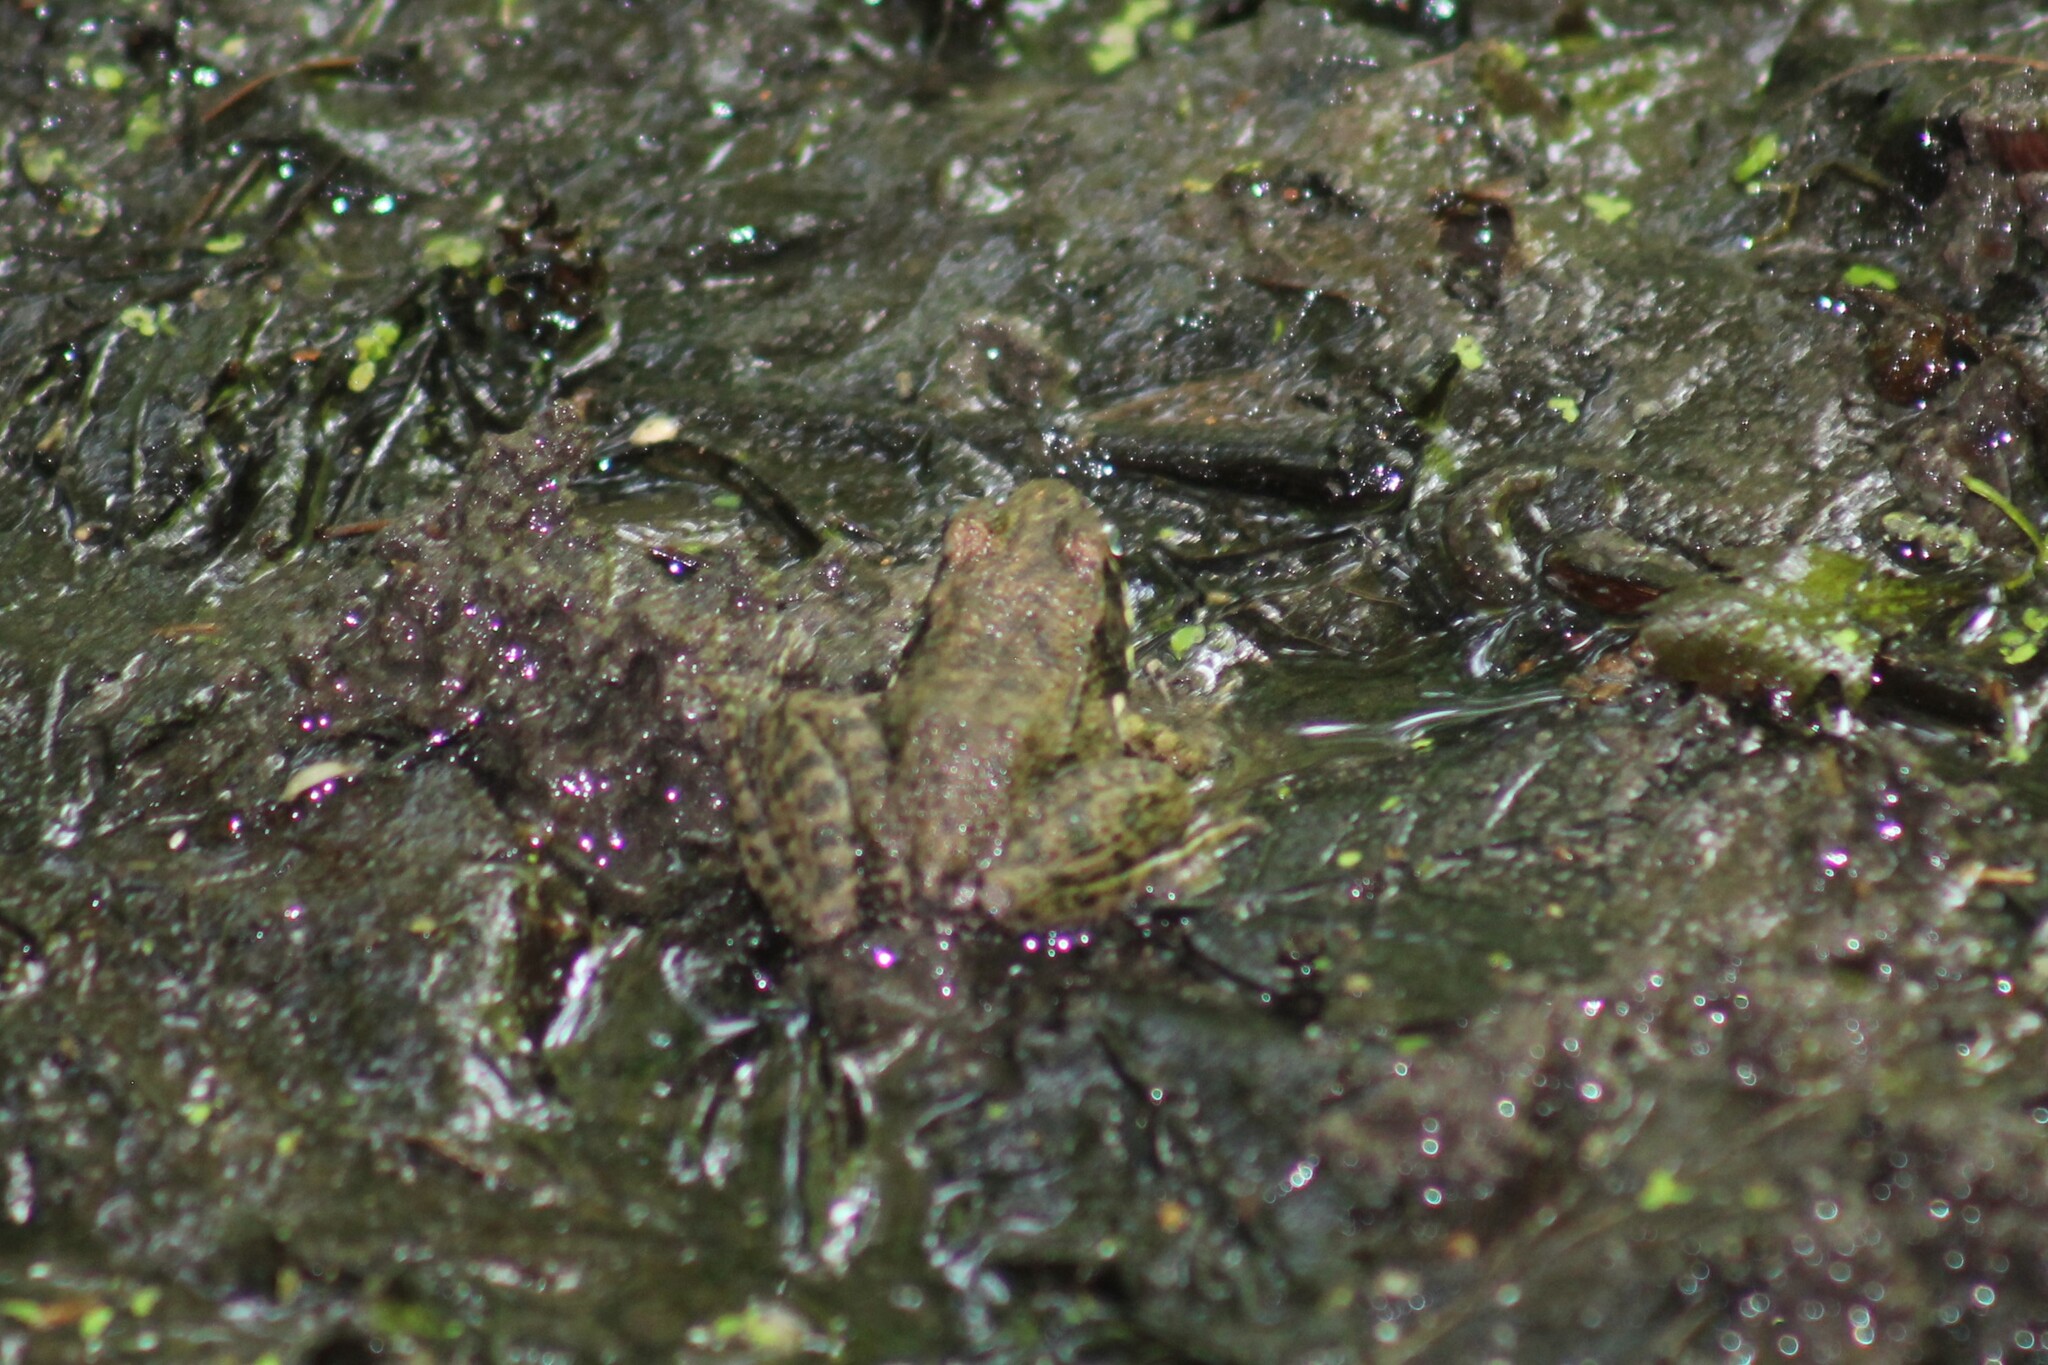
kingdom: Animalia
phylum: Chordata
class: Amphibia
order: Anura
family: Ranidae
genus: Lithobates
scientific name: Lithobates clamitans
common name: Green frog
